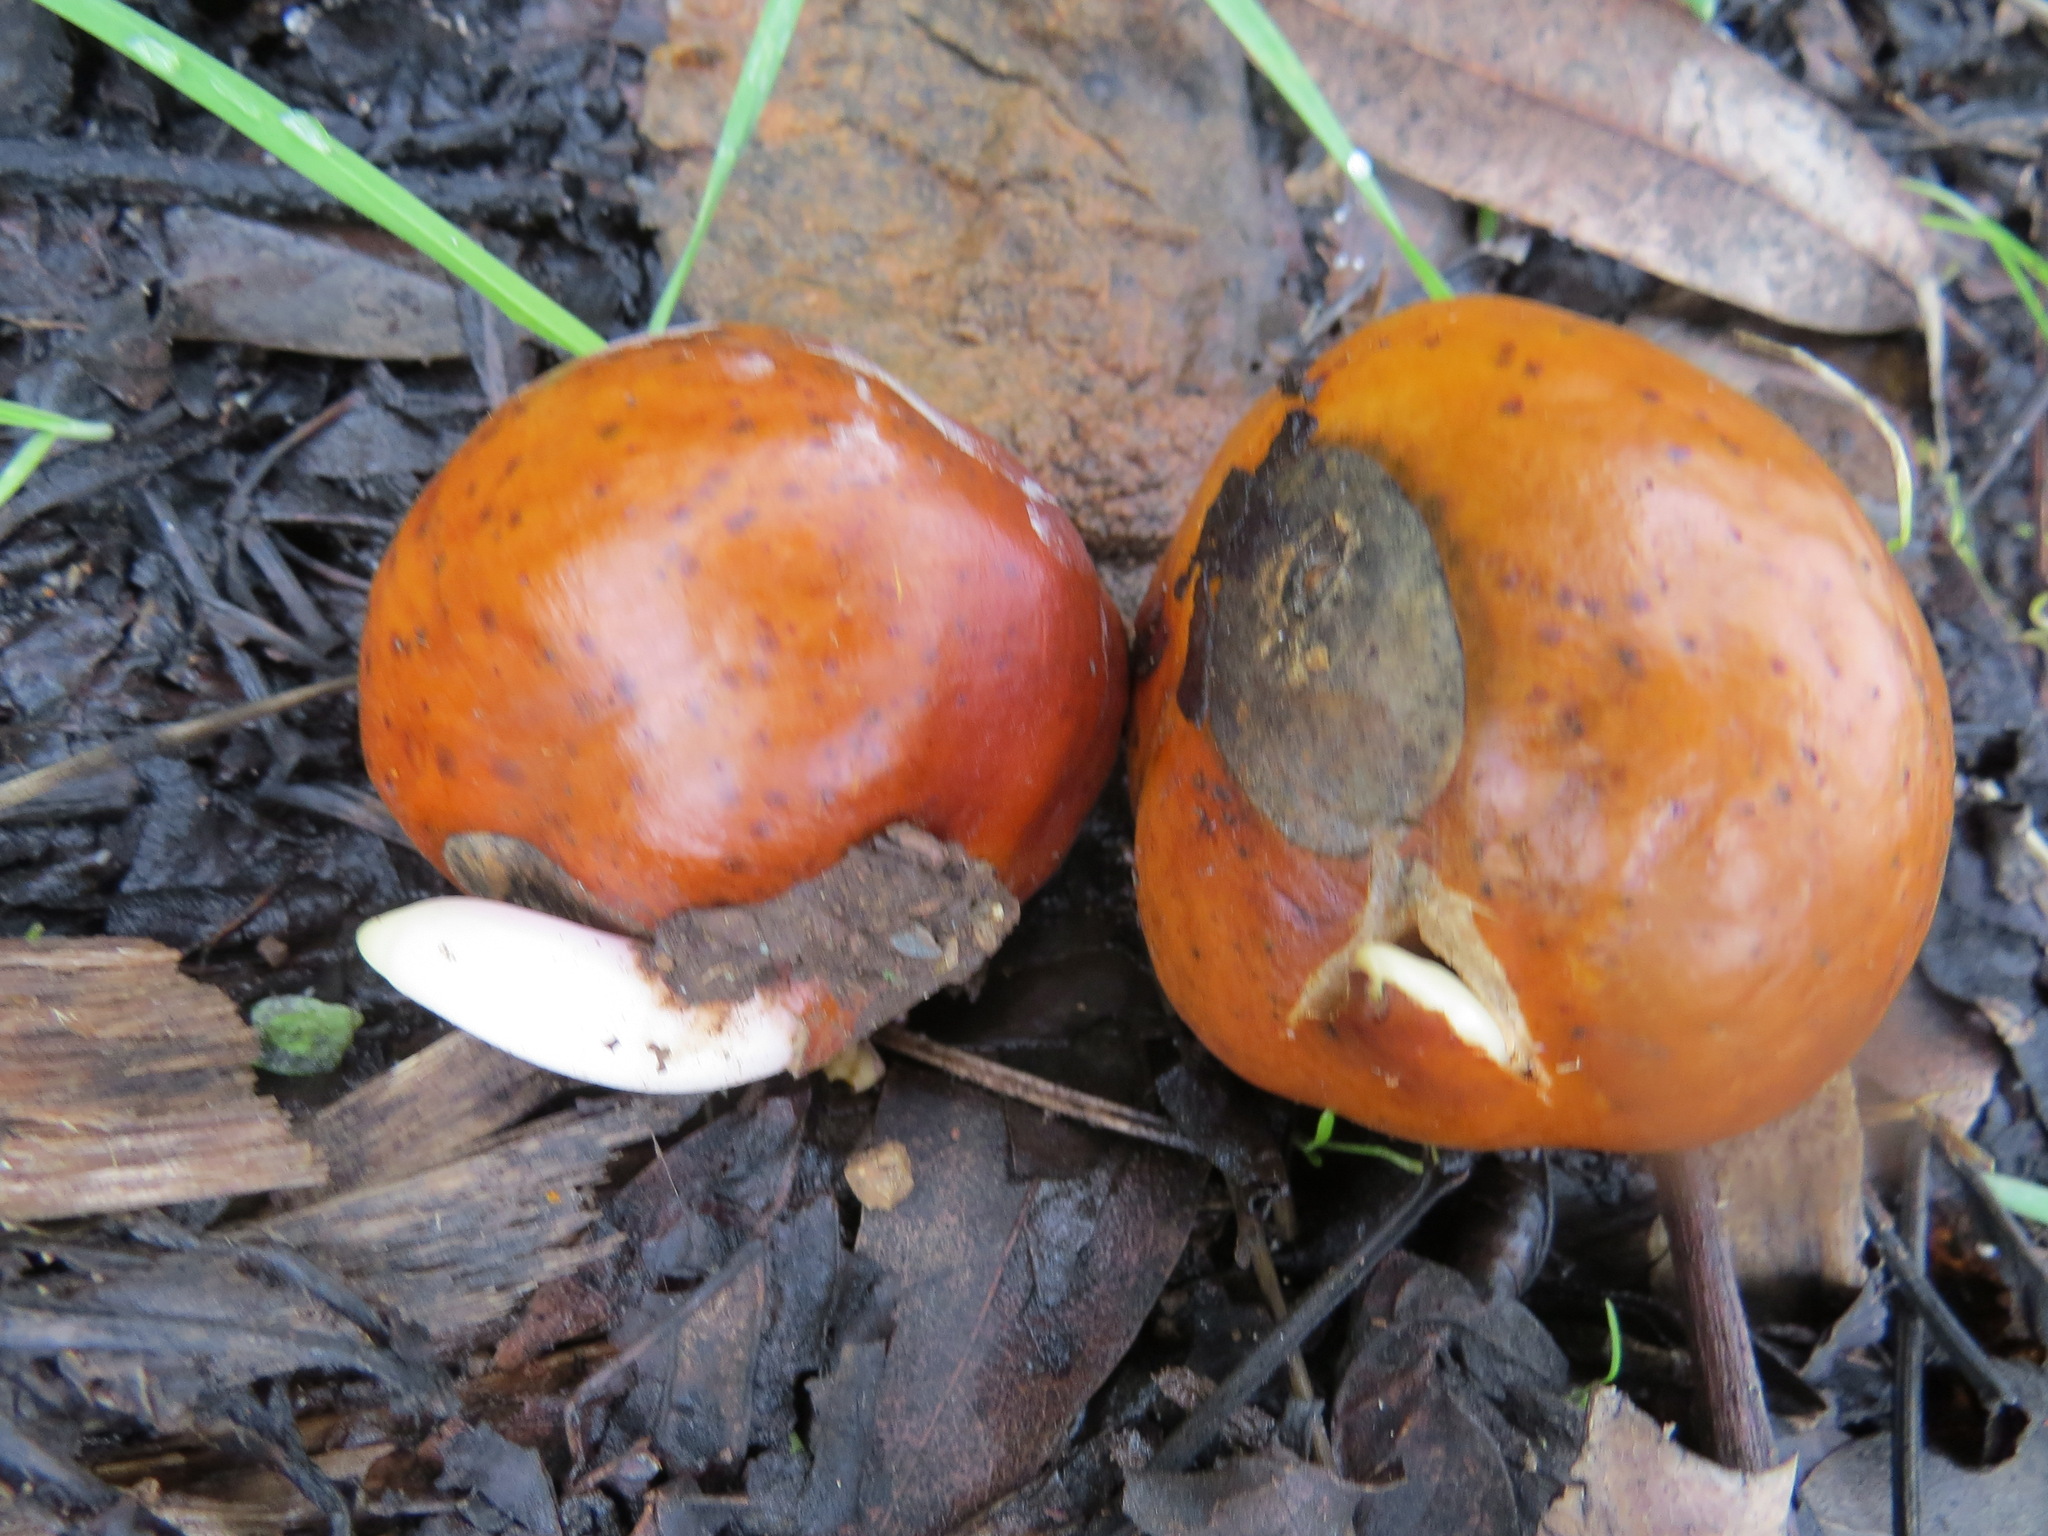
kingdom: Plantae
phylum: Tracheophyta
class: Magnoliopsida
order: Sapindales
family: Sapindaceae
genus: Aesculus
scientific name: Aesculus californica
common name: California buckeye
